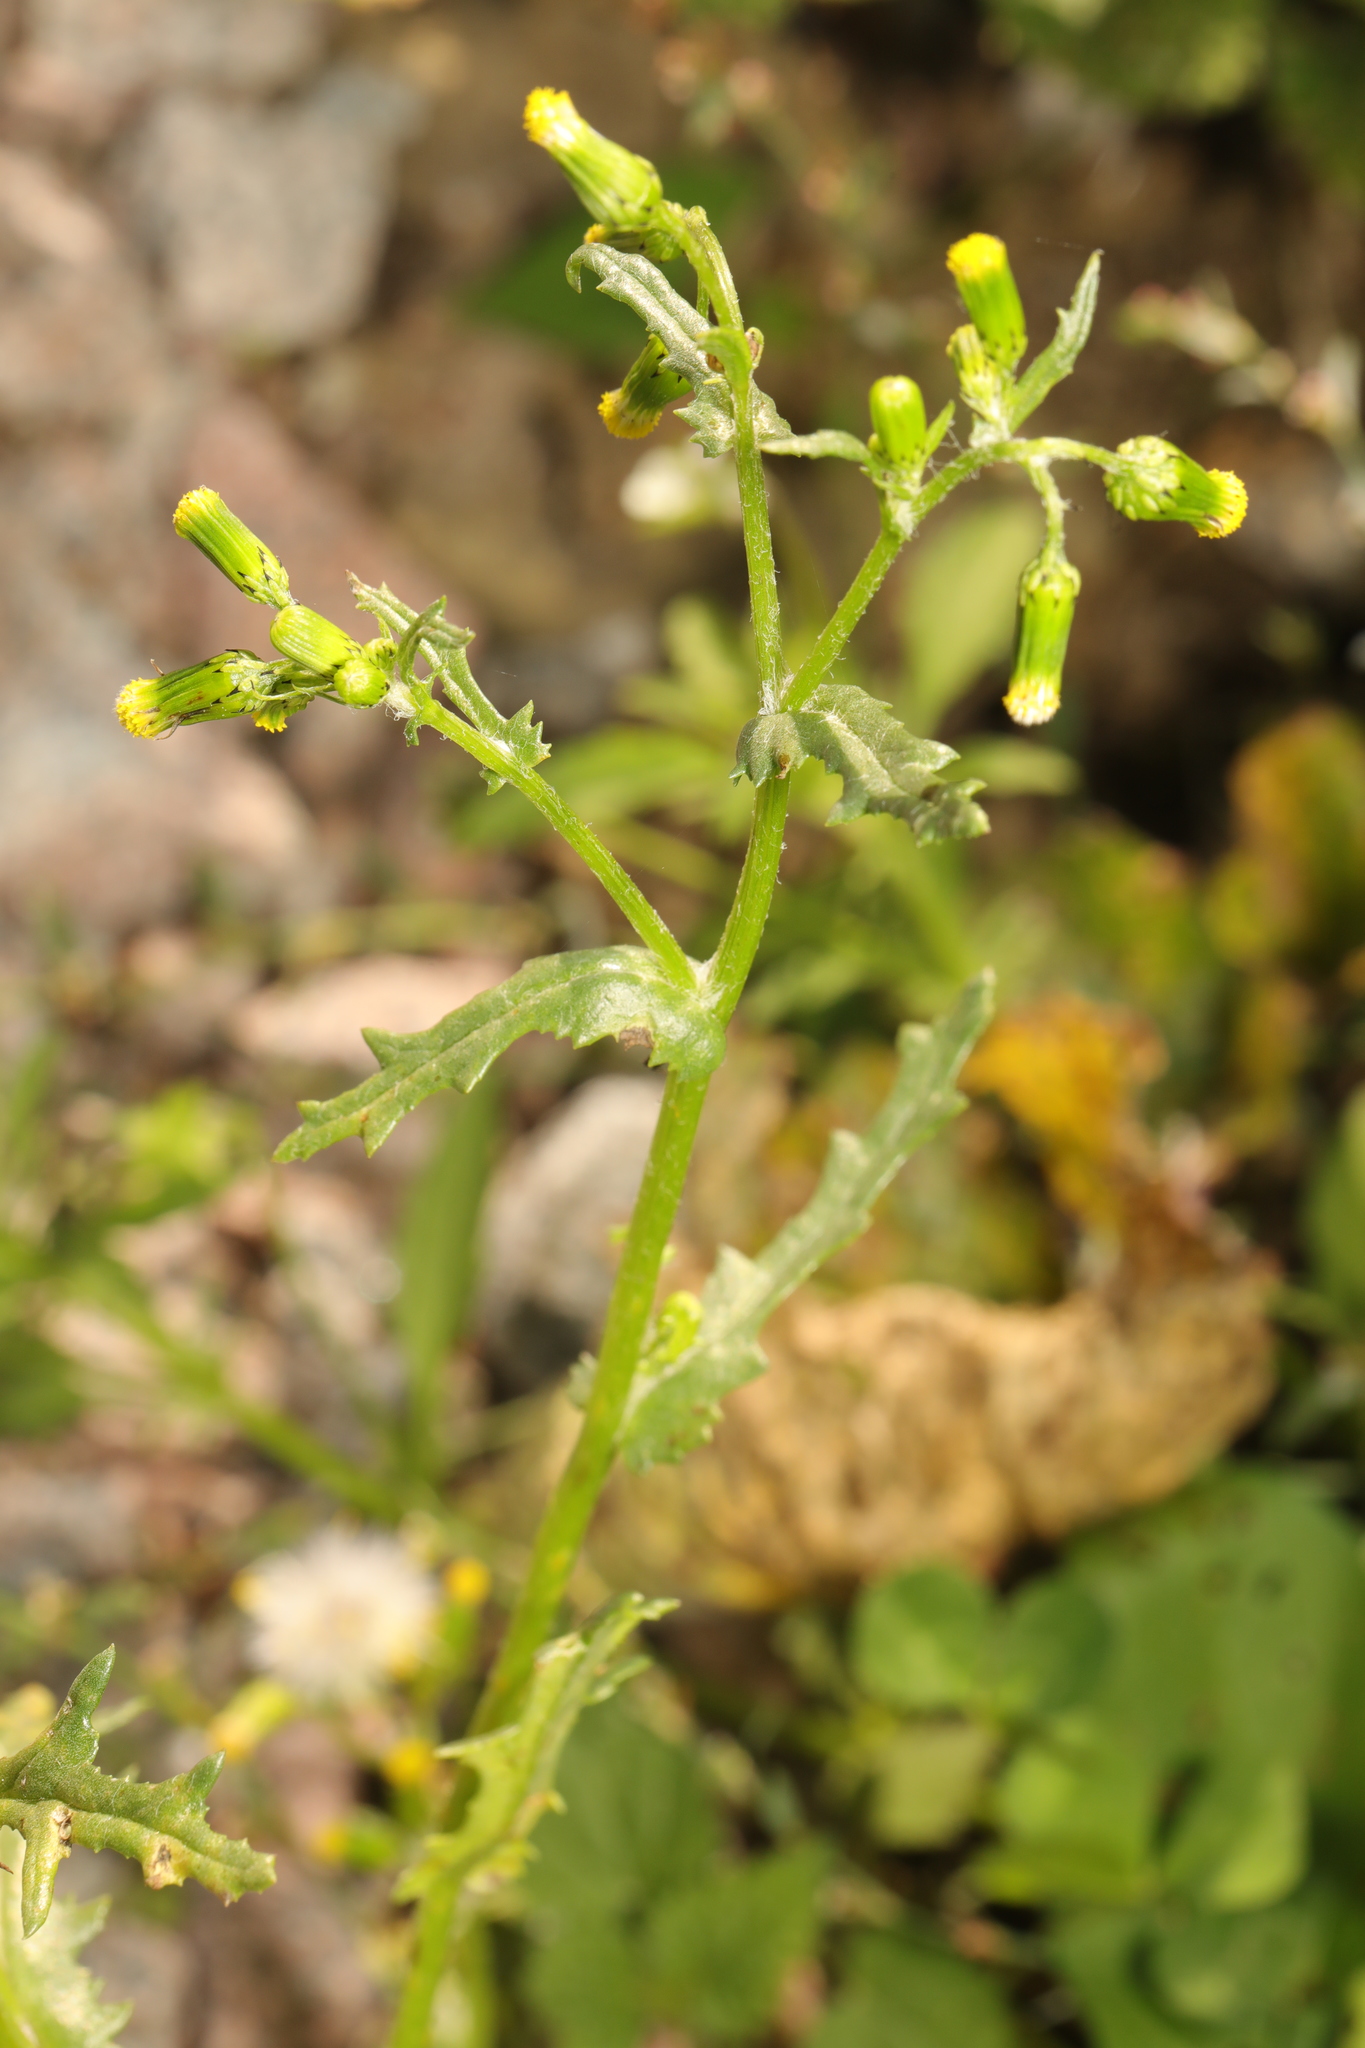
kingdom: Plantae
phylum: Tracheophyta
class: Magnoliopsida
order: Asterales
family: Asteraceae
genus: Senecio
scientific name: Senecio vulgaris
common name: Old-man-in-the-spring
